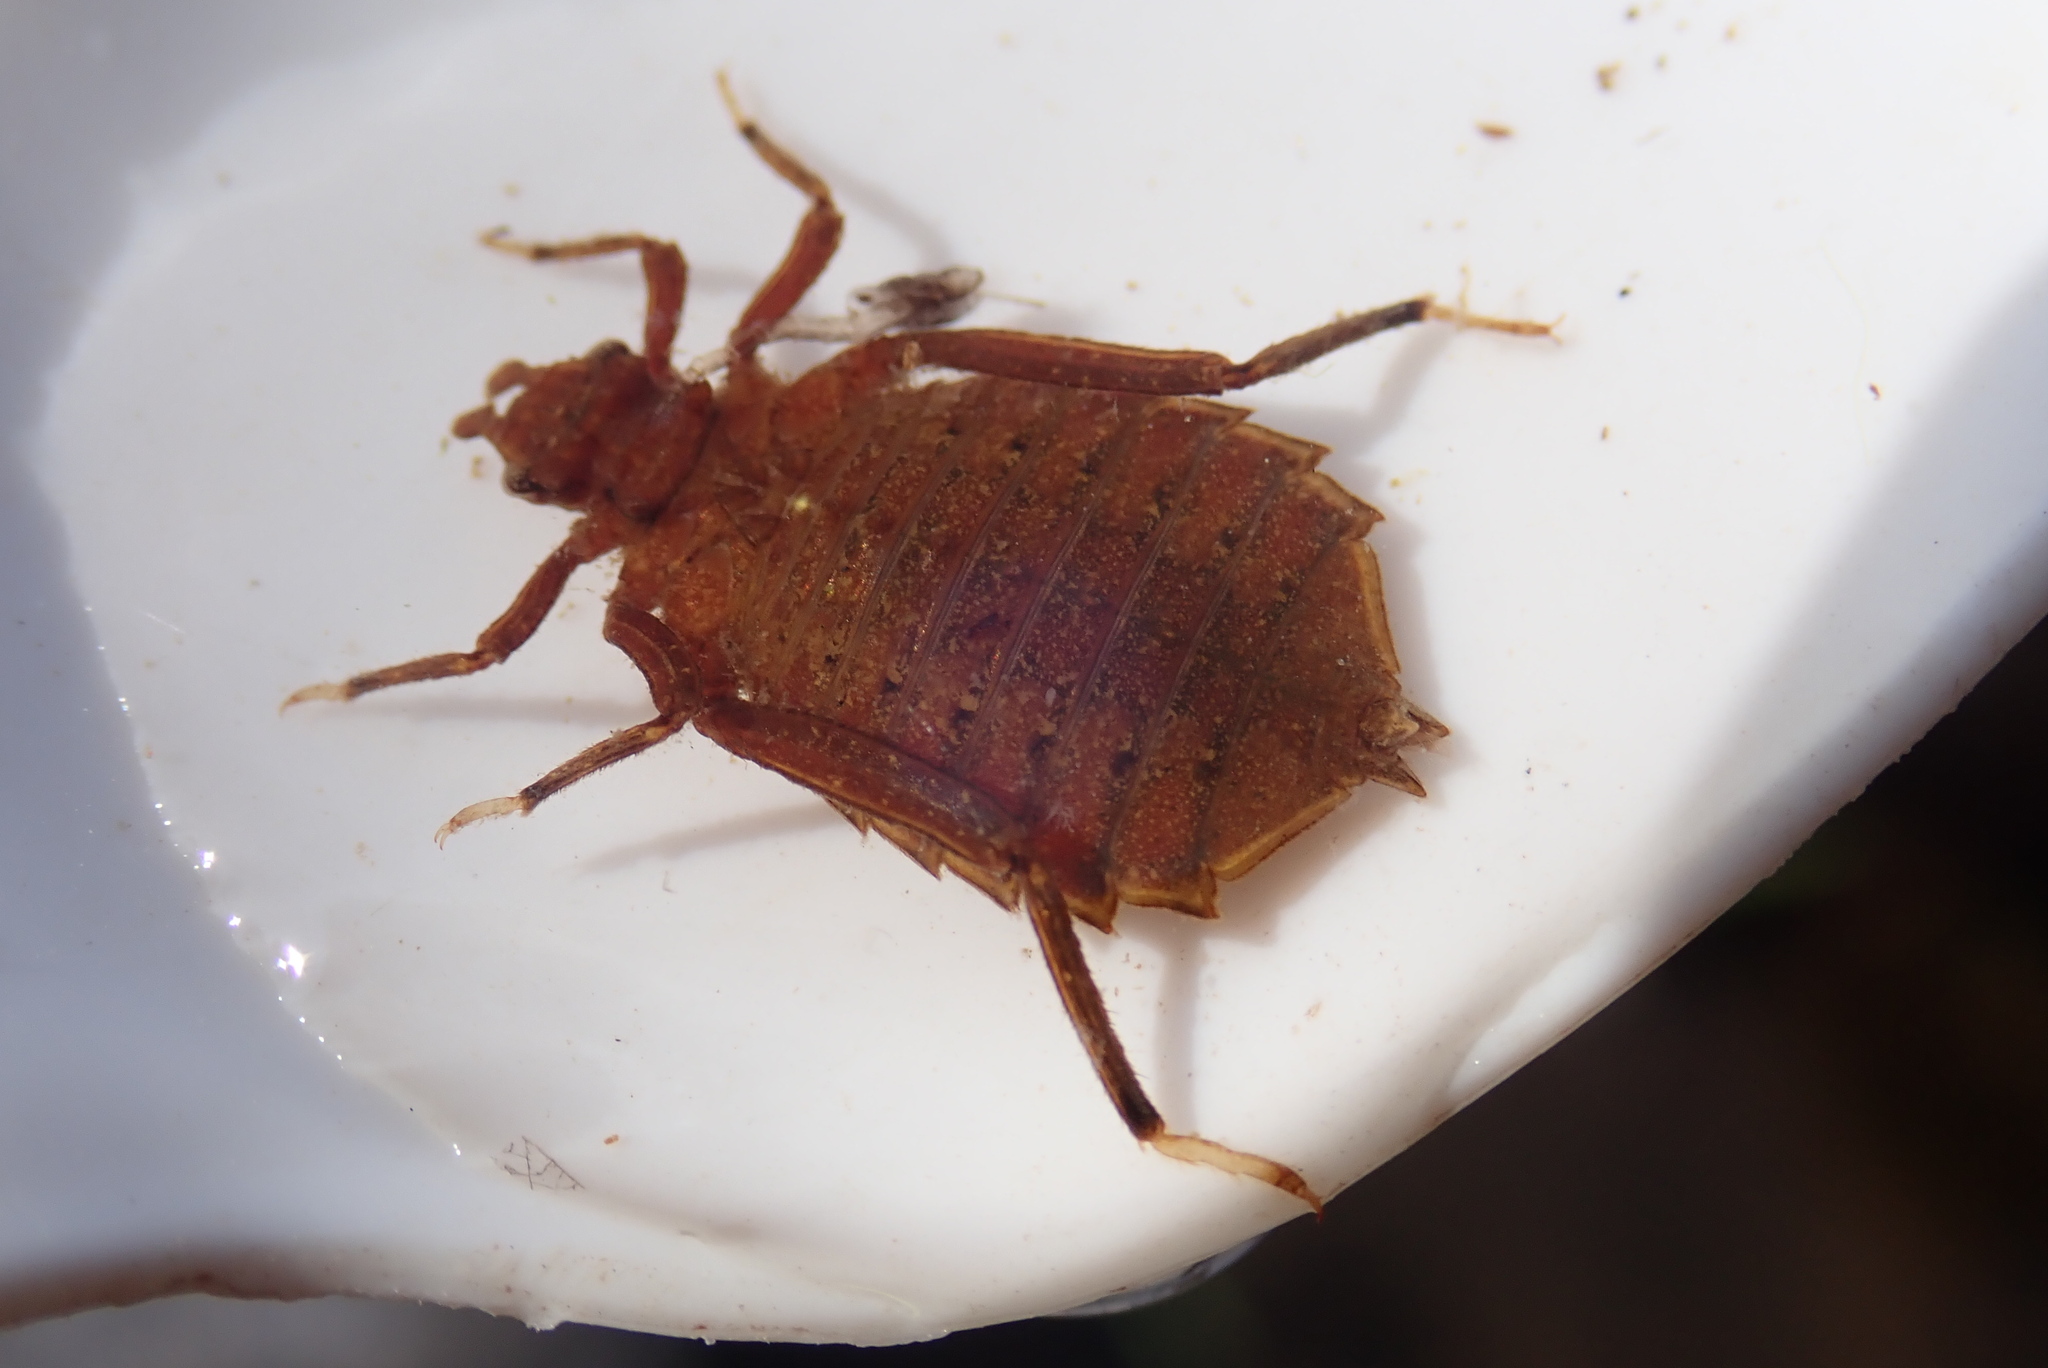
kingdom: Animalia
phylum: Arthropoda
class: Insecta
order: Odonata
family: Gomphidae
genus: Hagenius
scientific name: Hagenius brevistylus
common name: Dragonhunter
